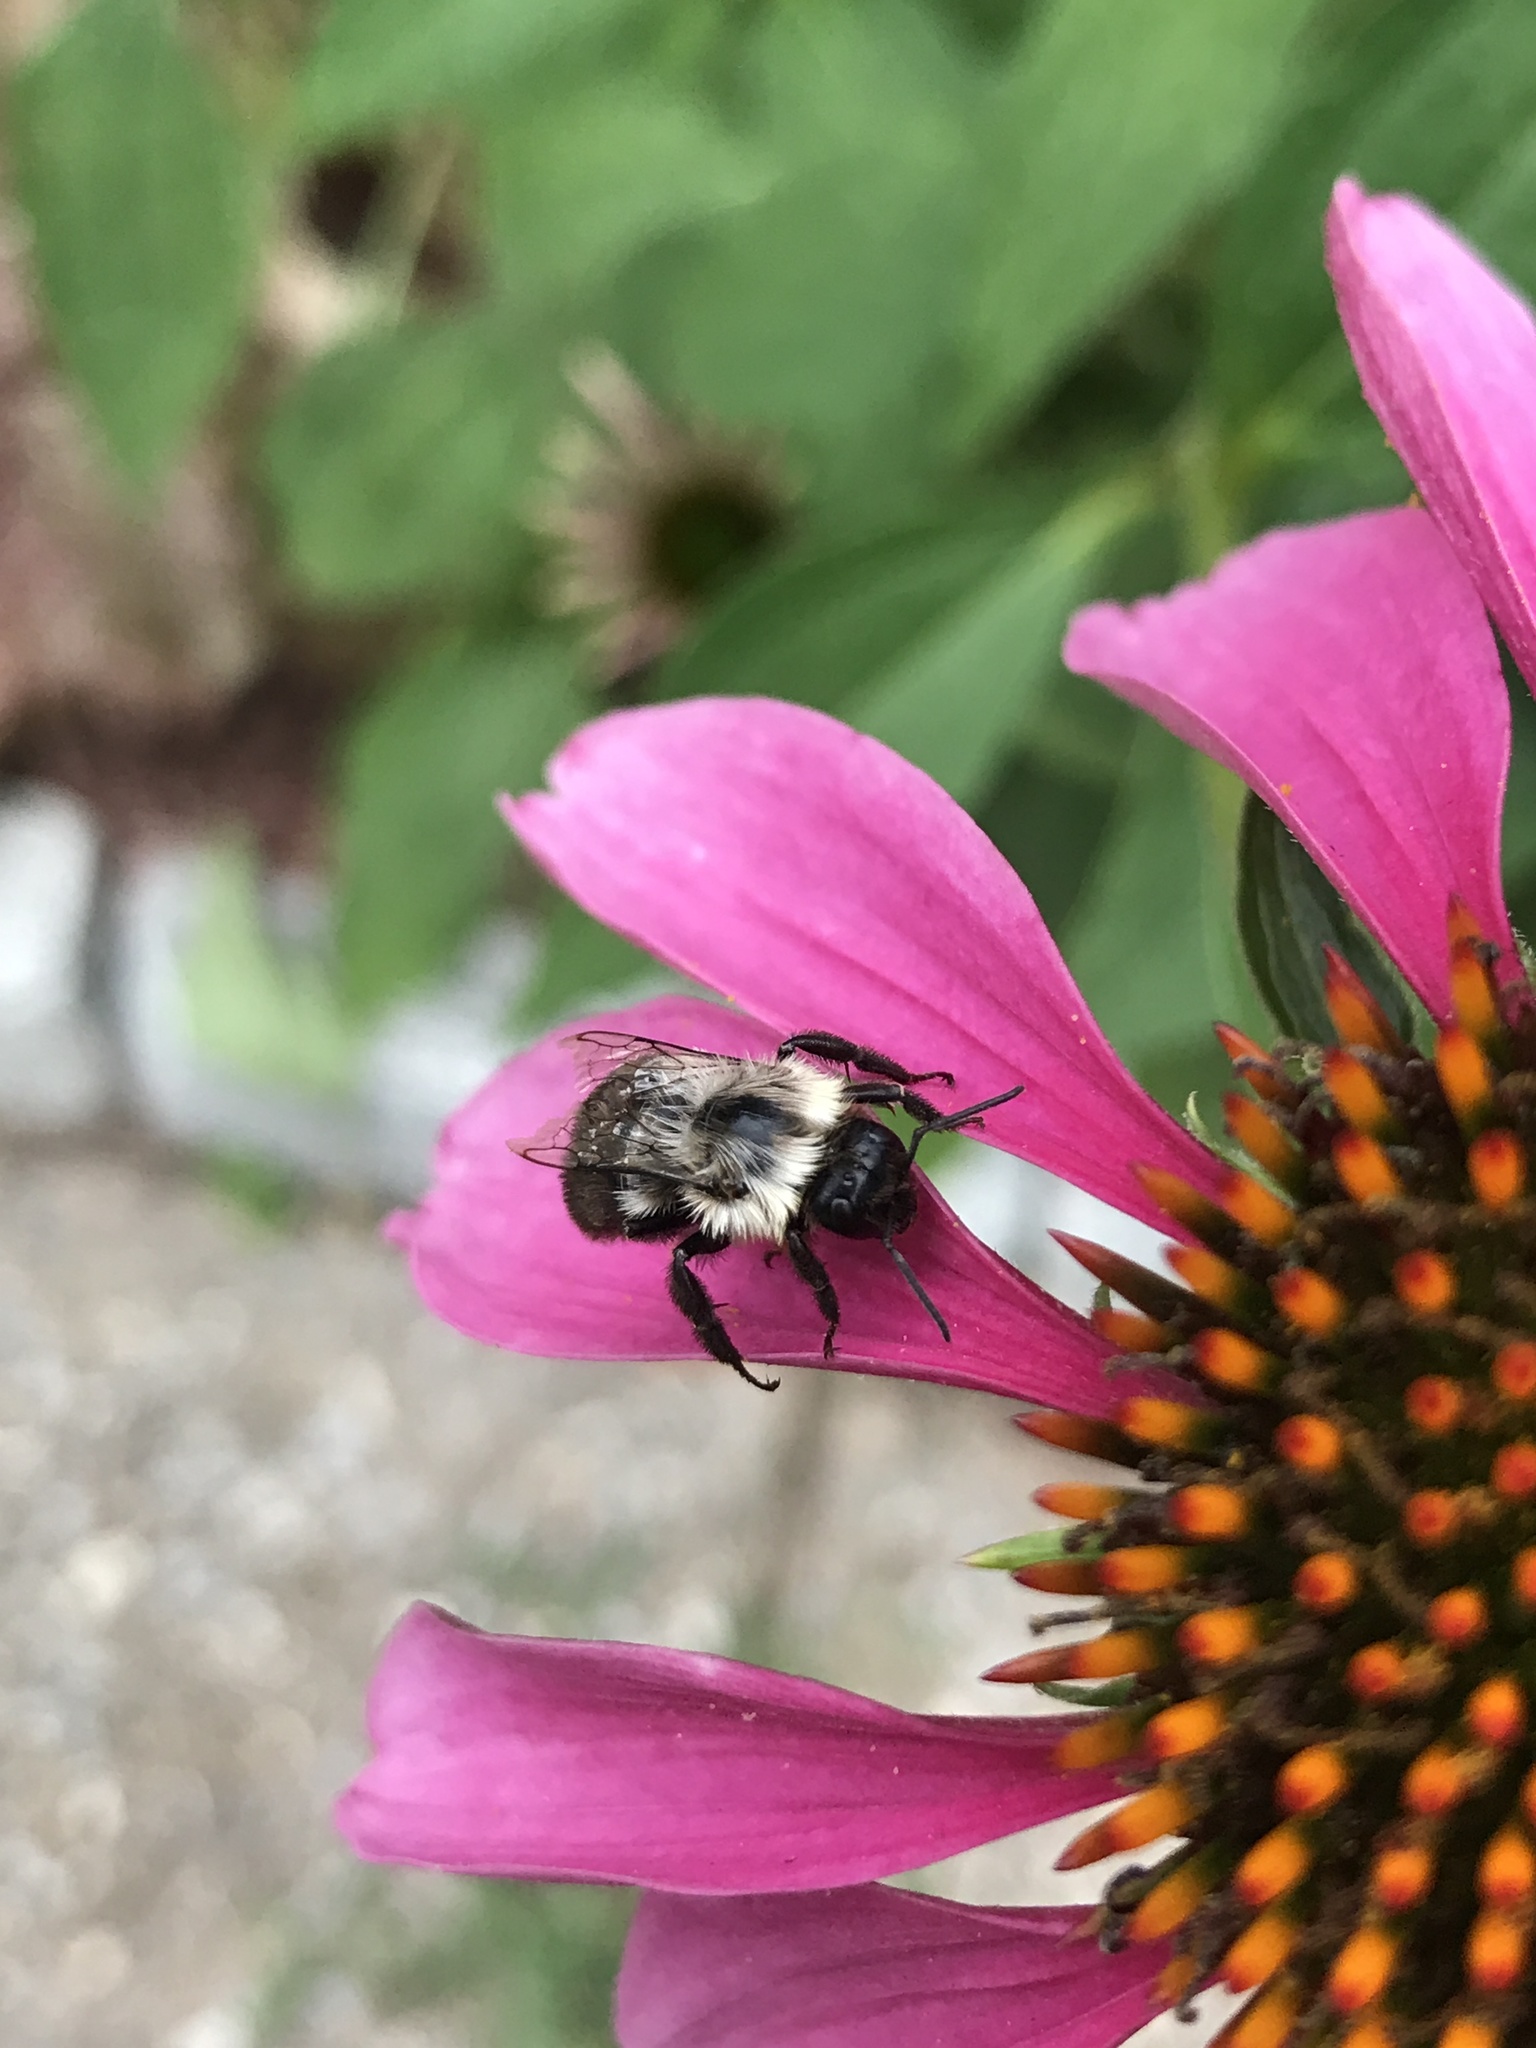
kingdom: Animalia
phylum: Arthropoda
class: Insecta
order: Hymenoptera
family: Apidae
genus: Bombus
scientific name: Bombus impatiens
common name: Common eastern bumble bee
